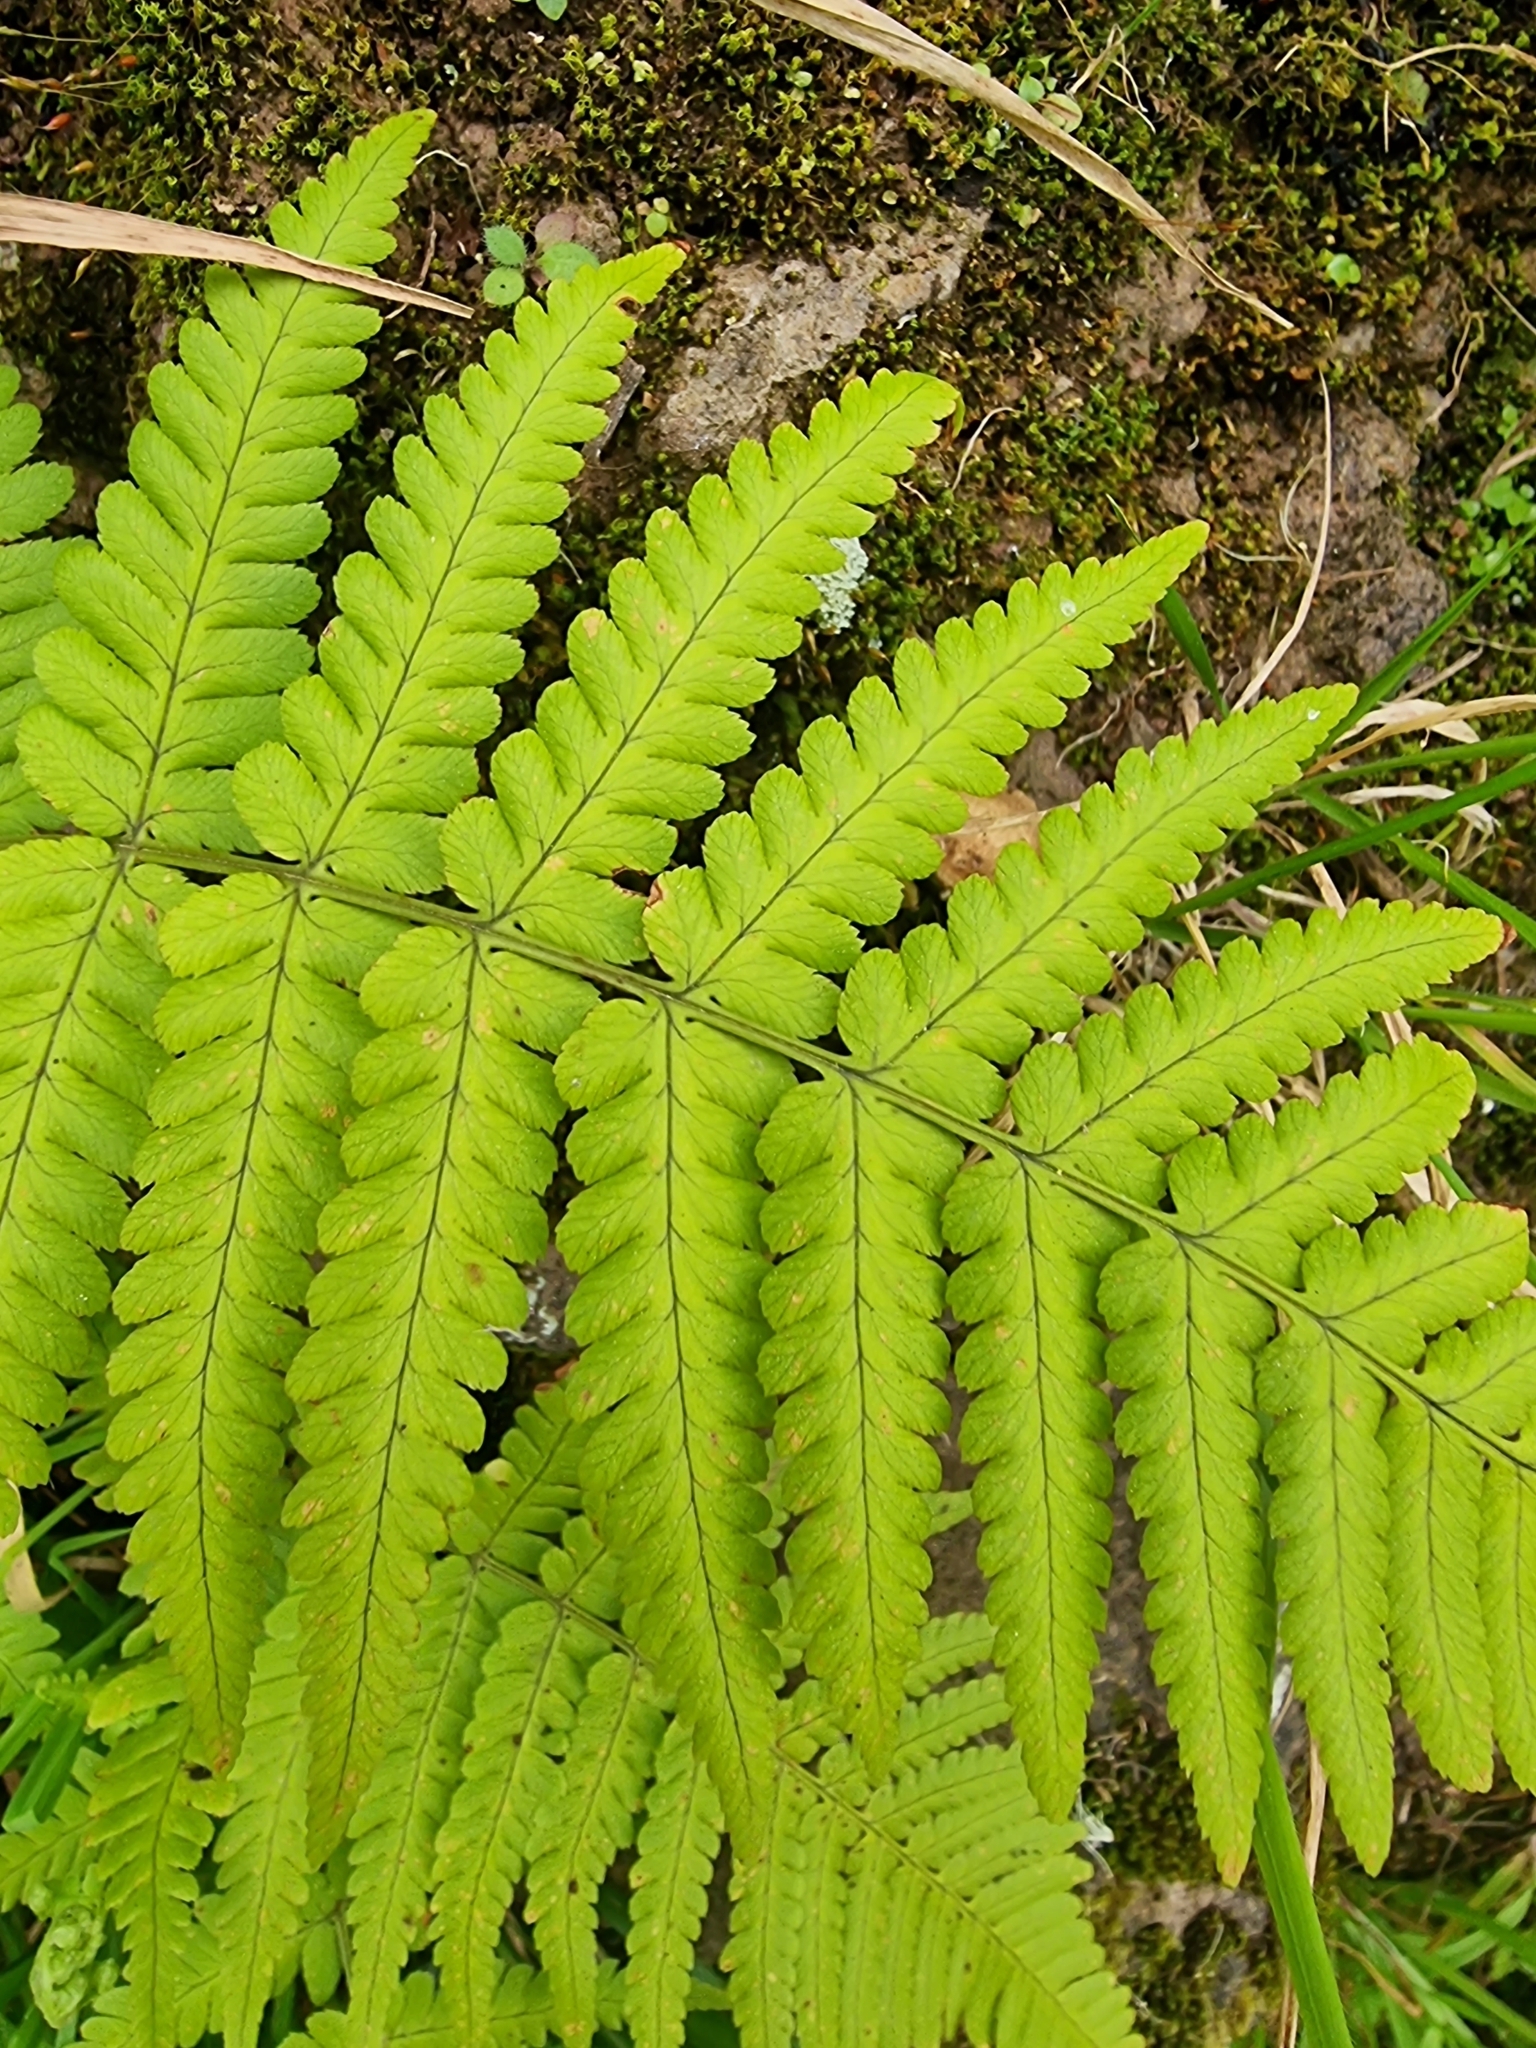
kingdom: Plantae
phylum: Tracheophyta
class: Polypodiopsida
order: Polypodiales
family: Thelypteridaceae
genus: Christella
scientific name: Christella dentata
